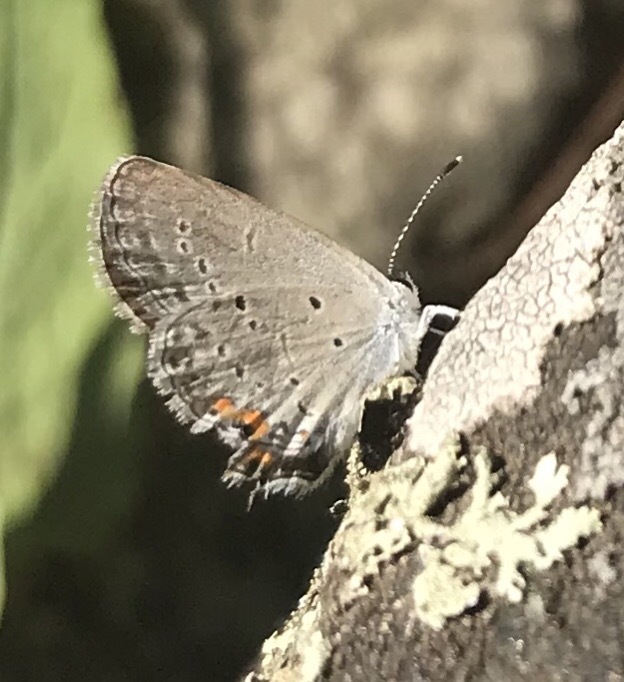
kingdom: Animalia
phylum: Arthropoda
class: Insecta
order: Lepidoptera
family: Lycaenidae
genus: Elkalyce
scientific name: Elkalyce comyntas
